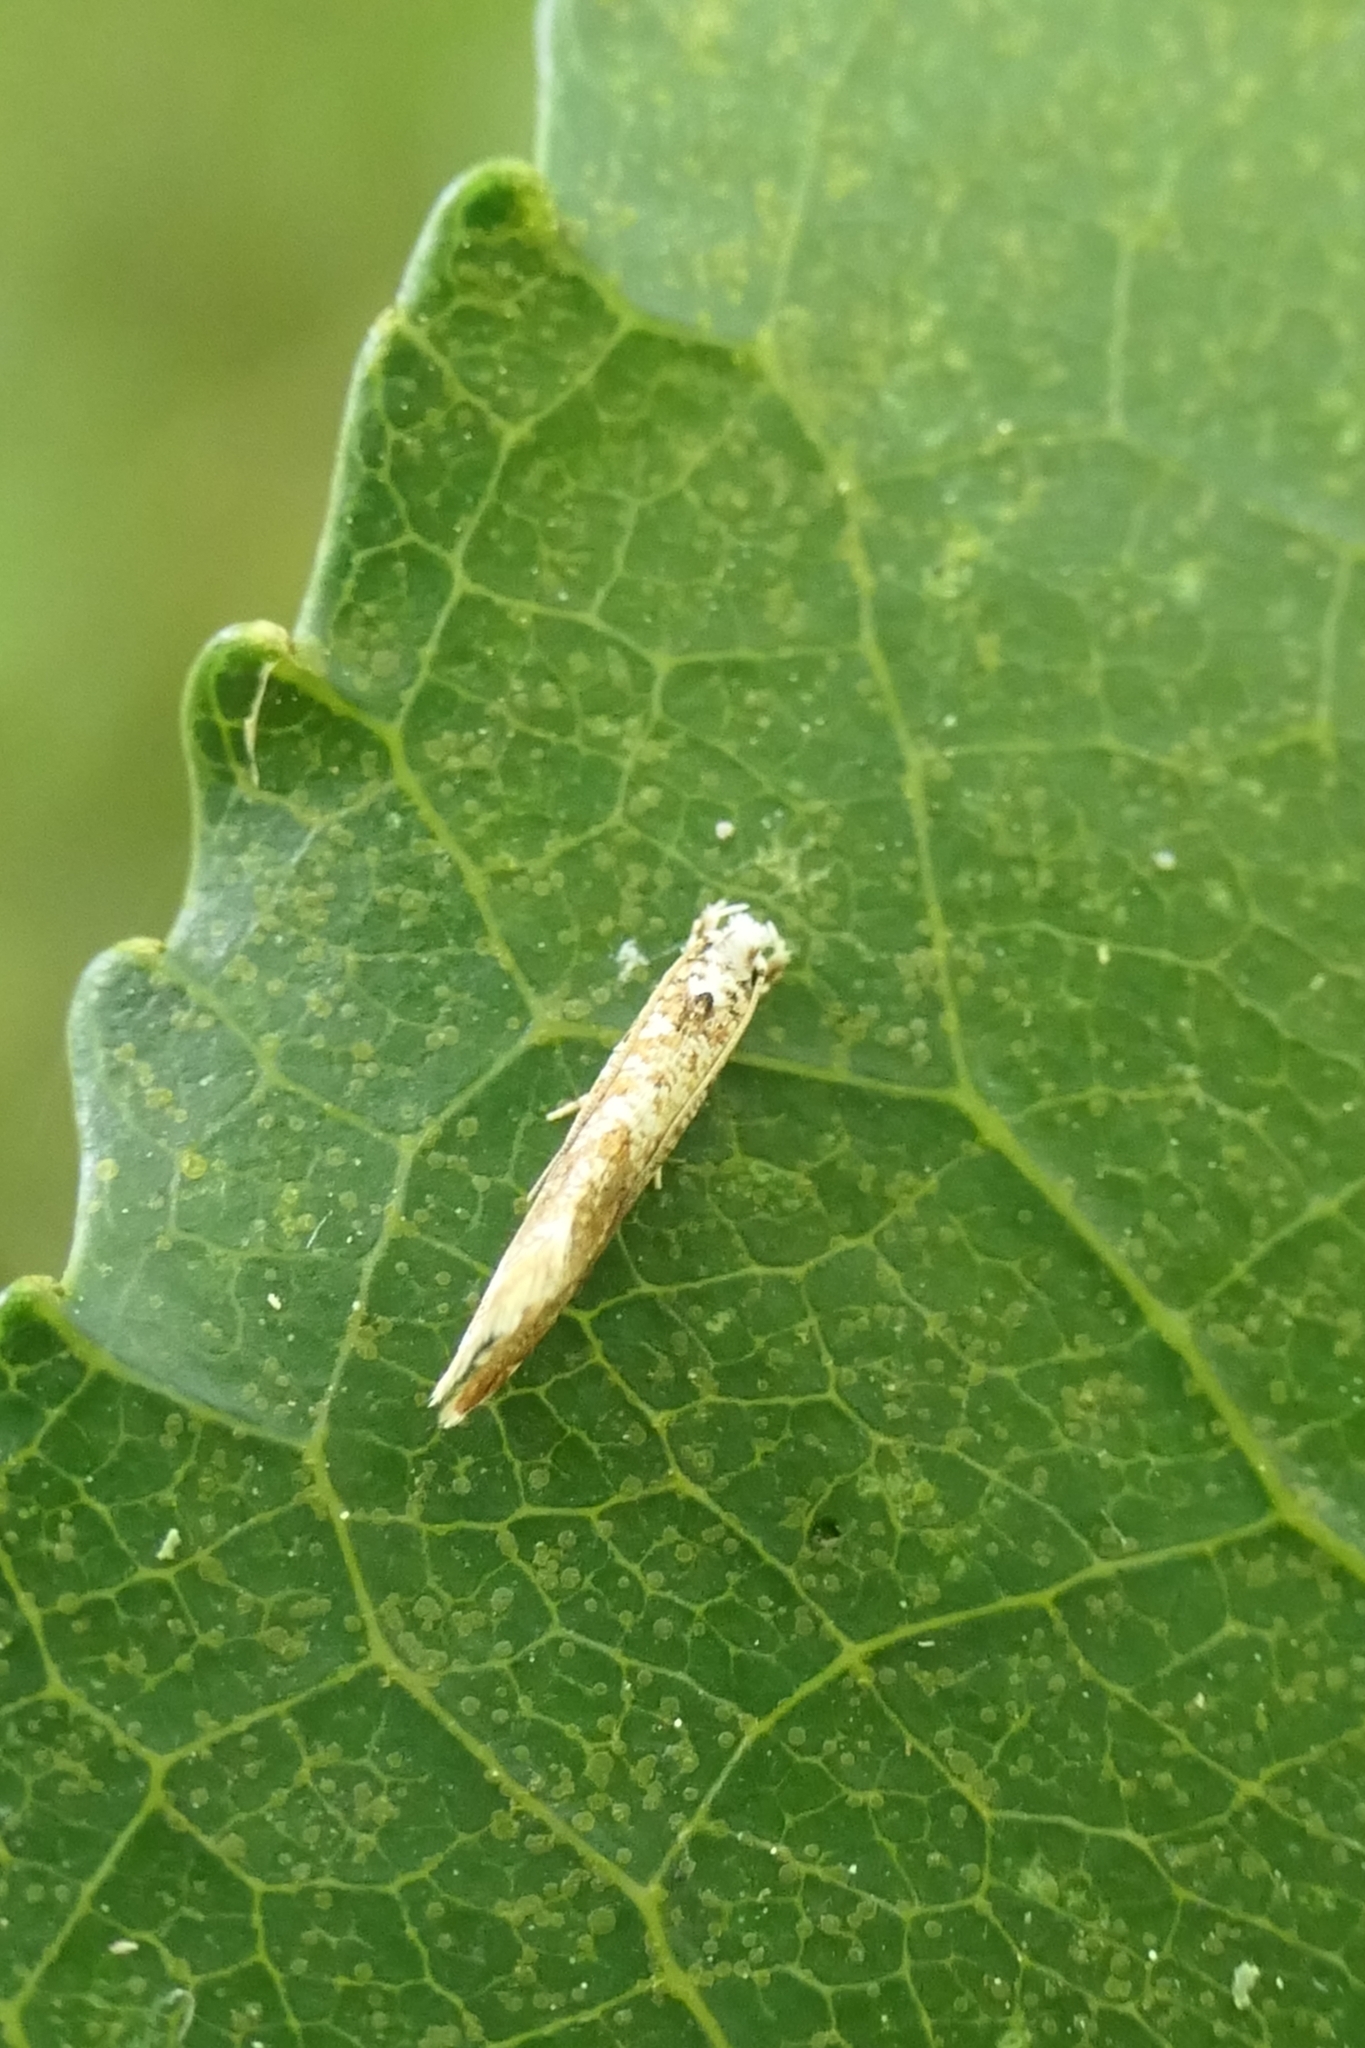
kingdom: Animalia
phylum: Arthropoda
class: Insecta
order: Lepidoptera
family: Tineidae
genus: Eschatotypa
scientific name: Eschatotypa derogatella
